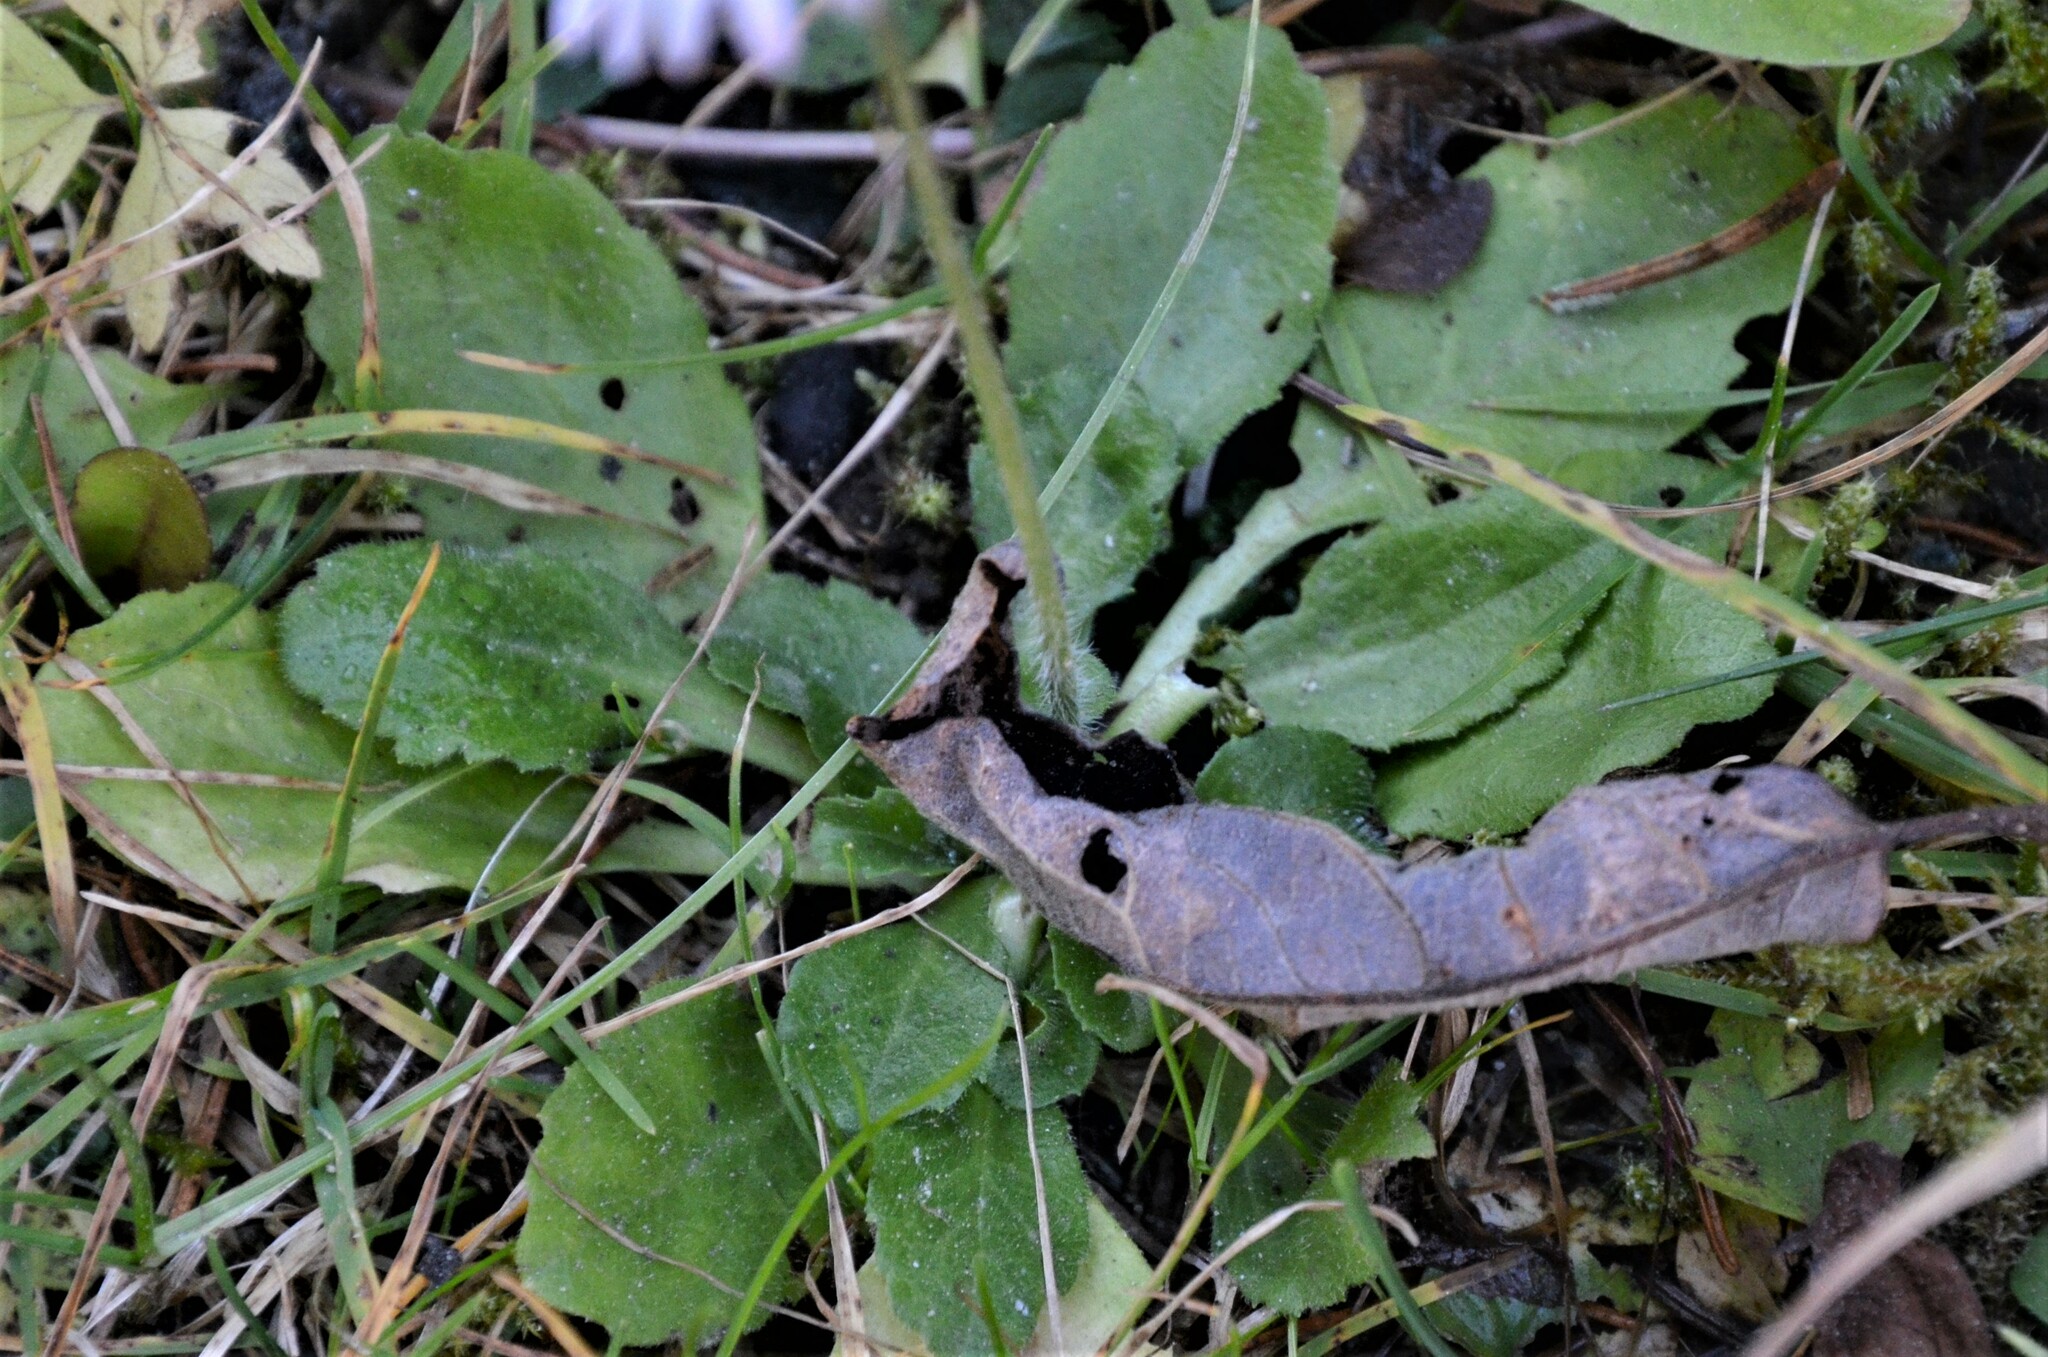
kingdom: Plantae
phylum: Tracheophyta
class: Magnoliopsida
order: Asterales
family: Asteraceae
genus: Bellis
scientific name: Bellis perennis
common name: Lawndaisy
